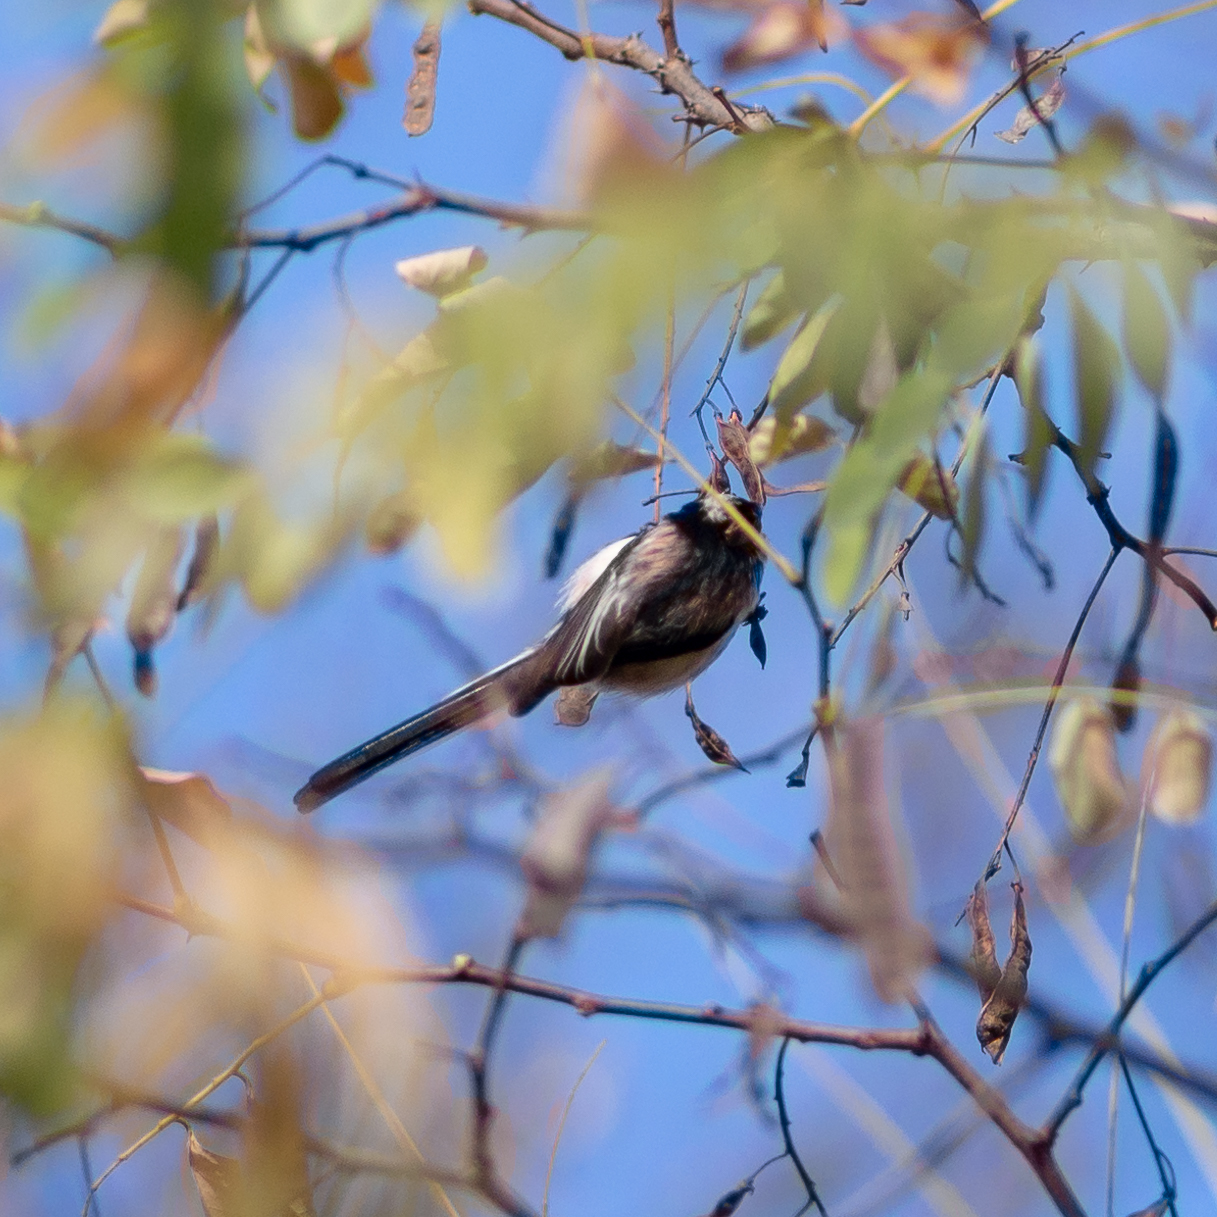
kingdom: Animalia
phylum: Chordata
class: Aves
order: Passeriformes
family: Aegithalidae
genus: Aegithalos
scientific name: Aegithalos caudatus
